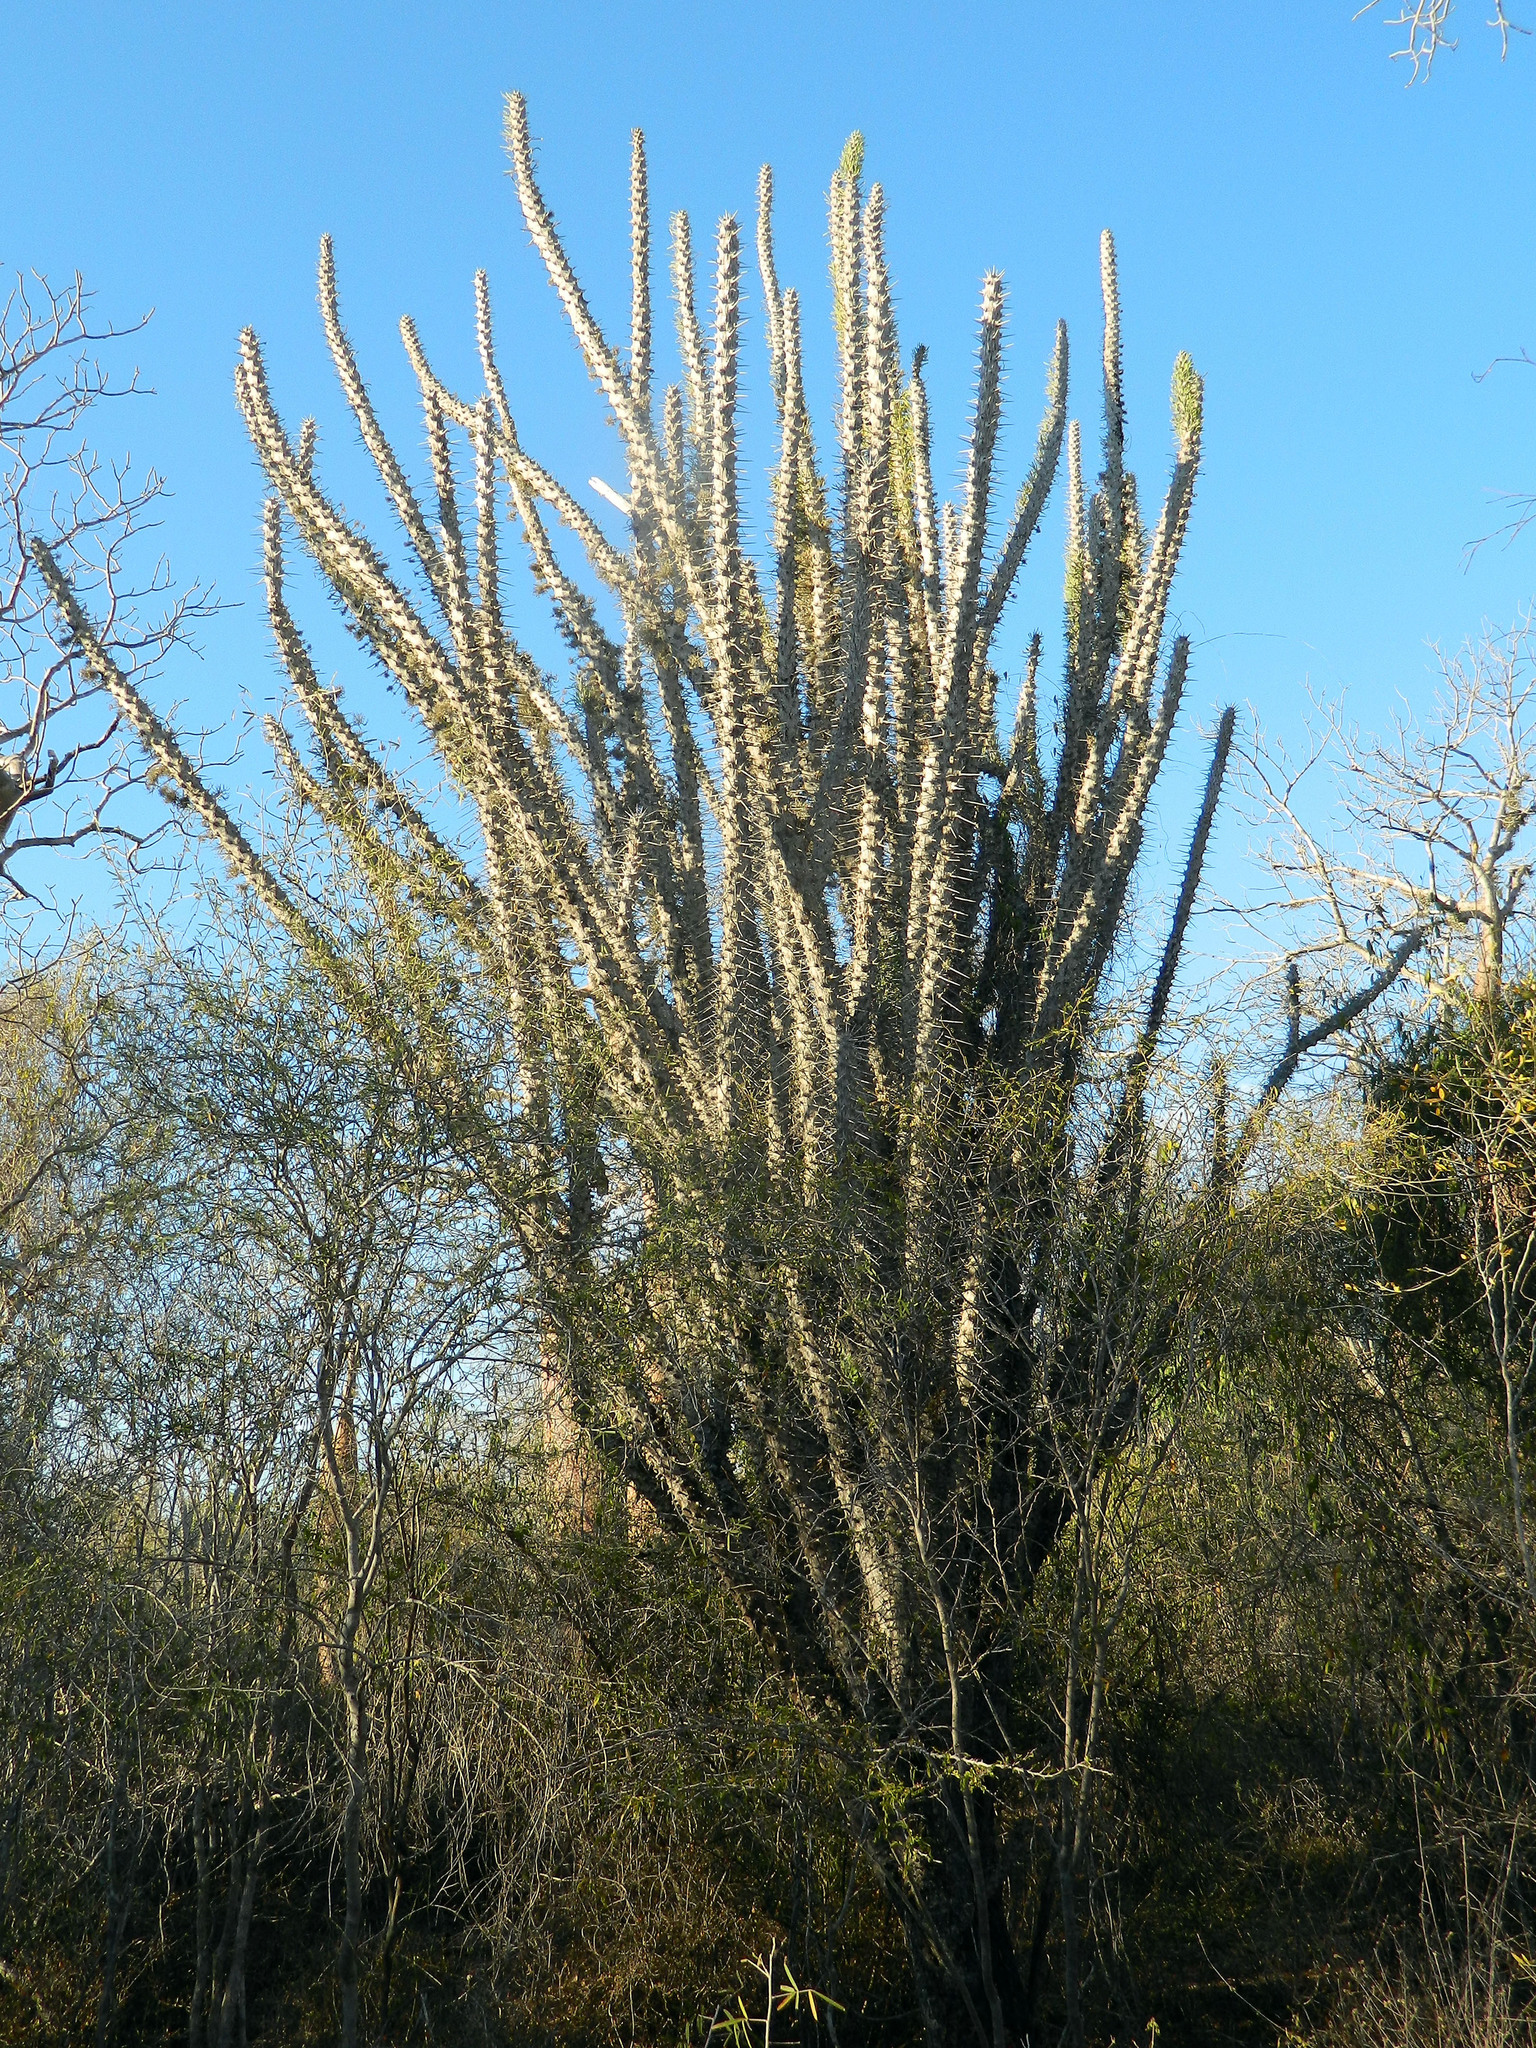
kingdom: Plantae
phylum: Tracheophyta
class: Magnoliopsida
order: Caryophyllales
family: Didiereaceae
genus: Didierea
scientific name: Didierea madagascariensis
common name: Octopus-tree
